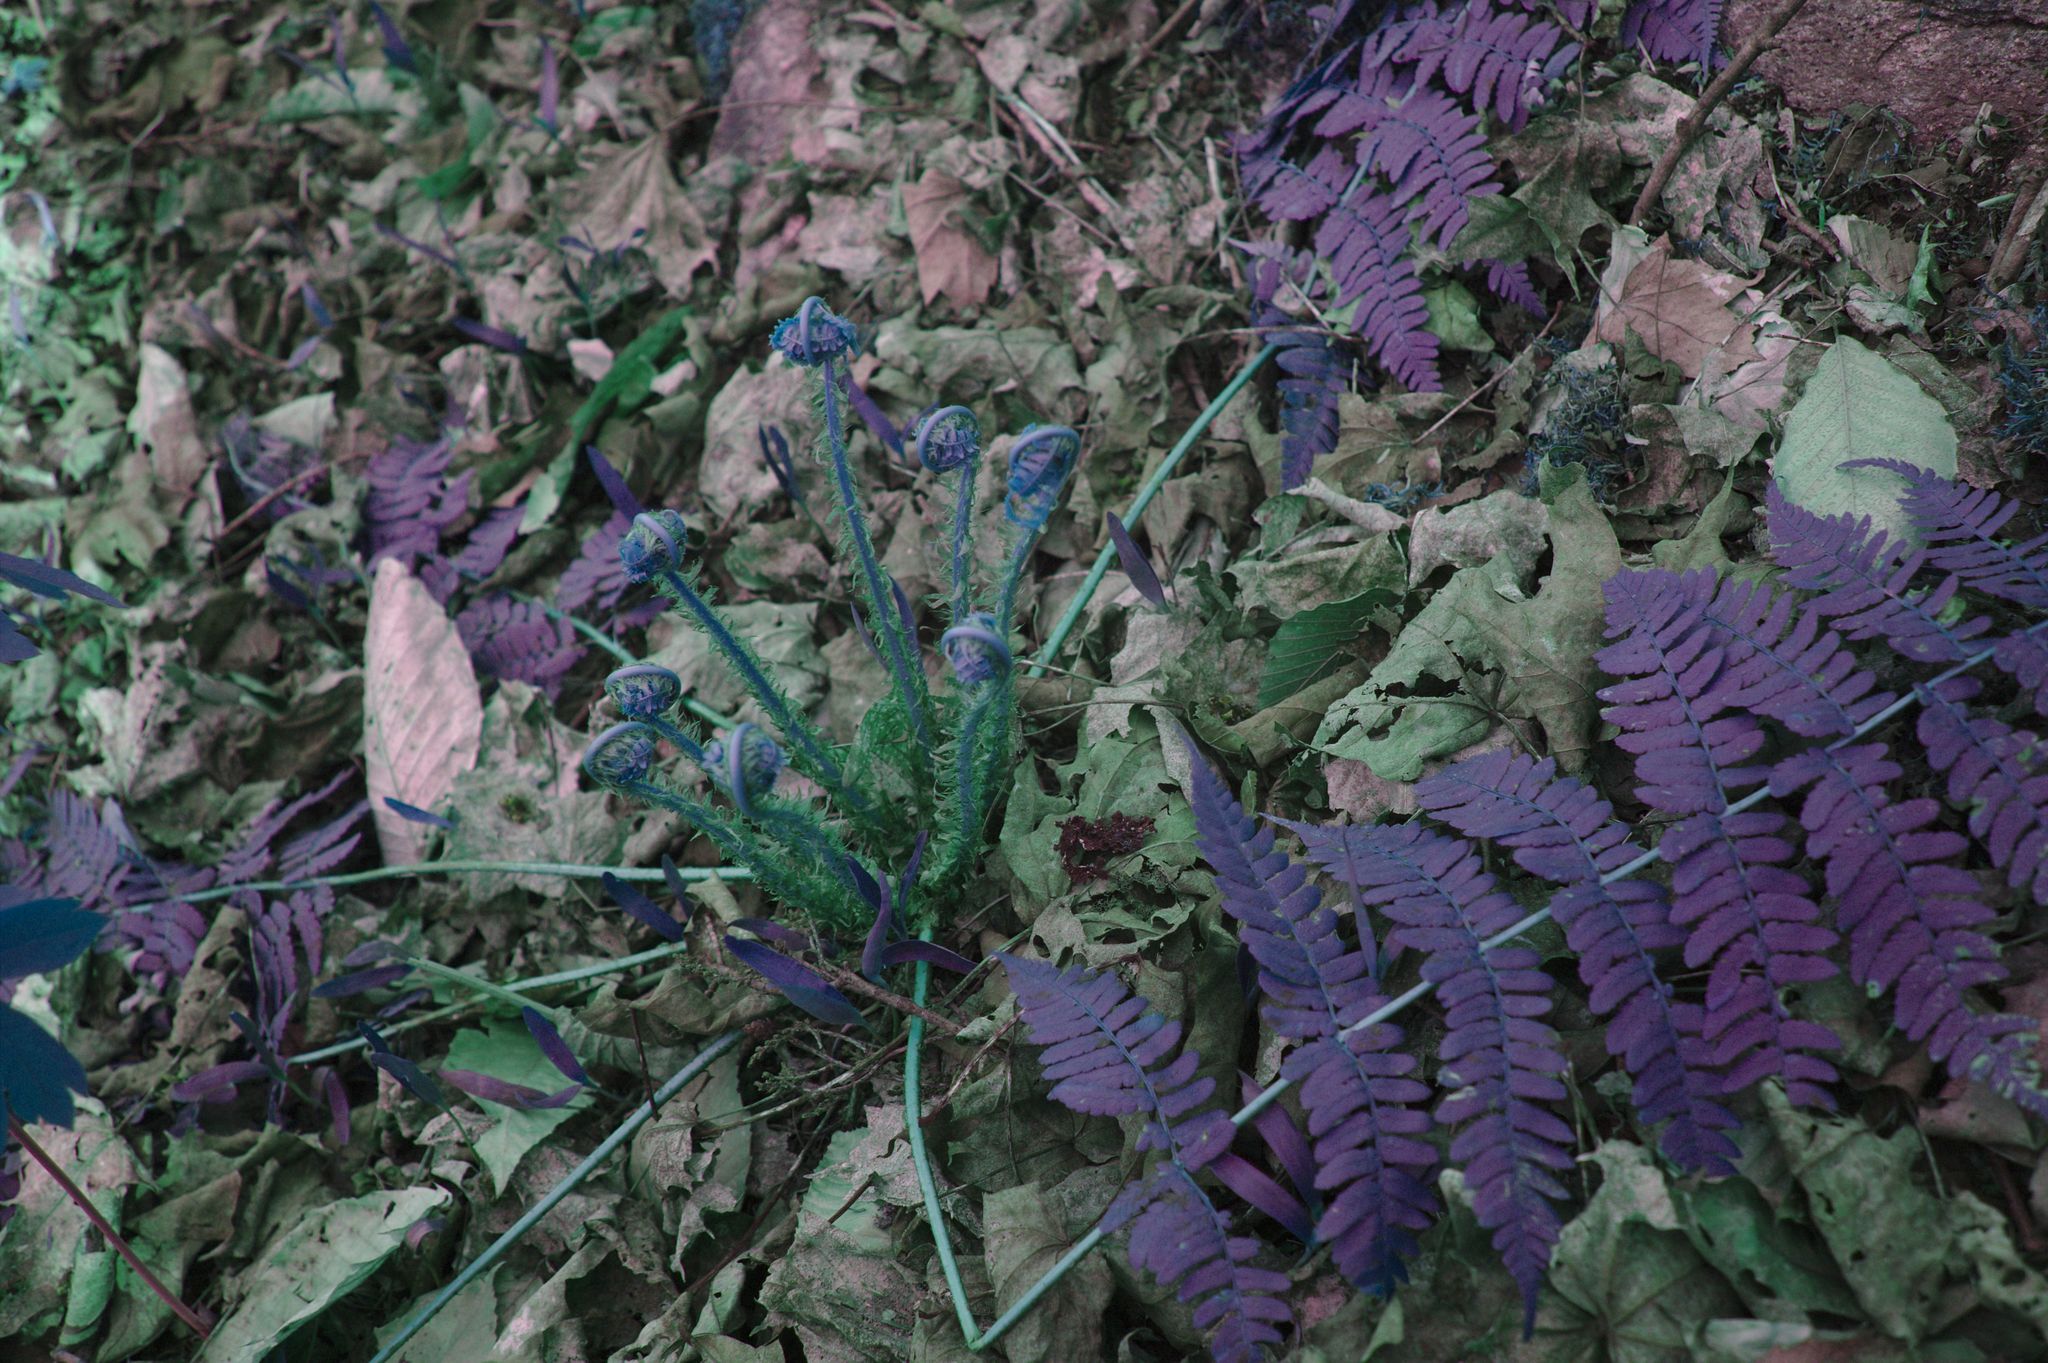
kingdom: Plantae
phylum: Tracheophyta
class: Polypodiopsida
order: Polypodiales
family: Dryopteridaceae
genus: Dryopteris
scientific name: Dryopteris marginalis
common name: Marginal wood fern
